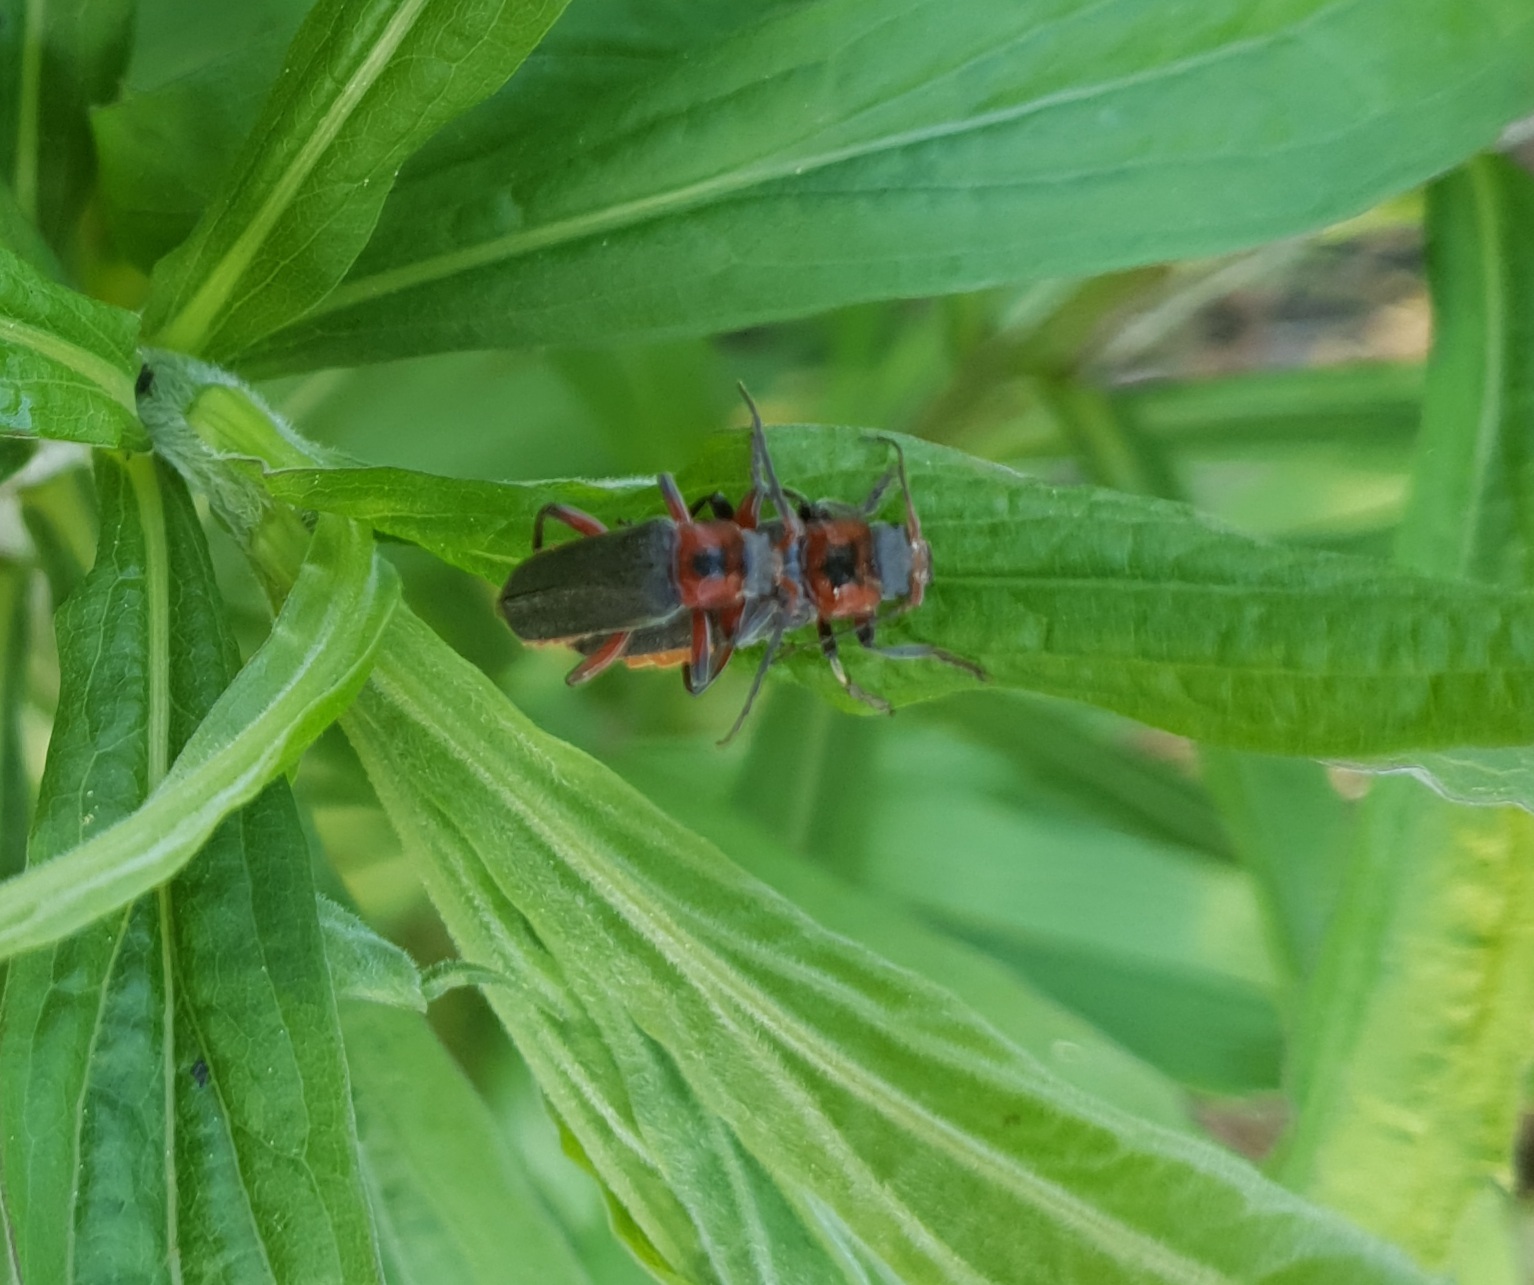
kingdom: Animalia
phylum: Arthropoda
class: Insecta
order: Coleoptera
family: Cantharidae
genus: Cantharis
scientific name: Cantharis rustica
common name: Soldier beetle
